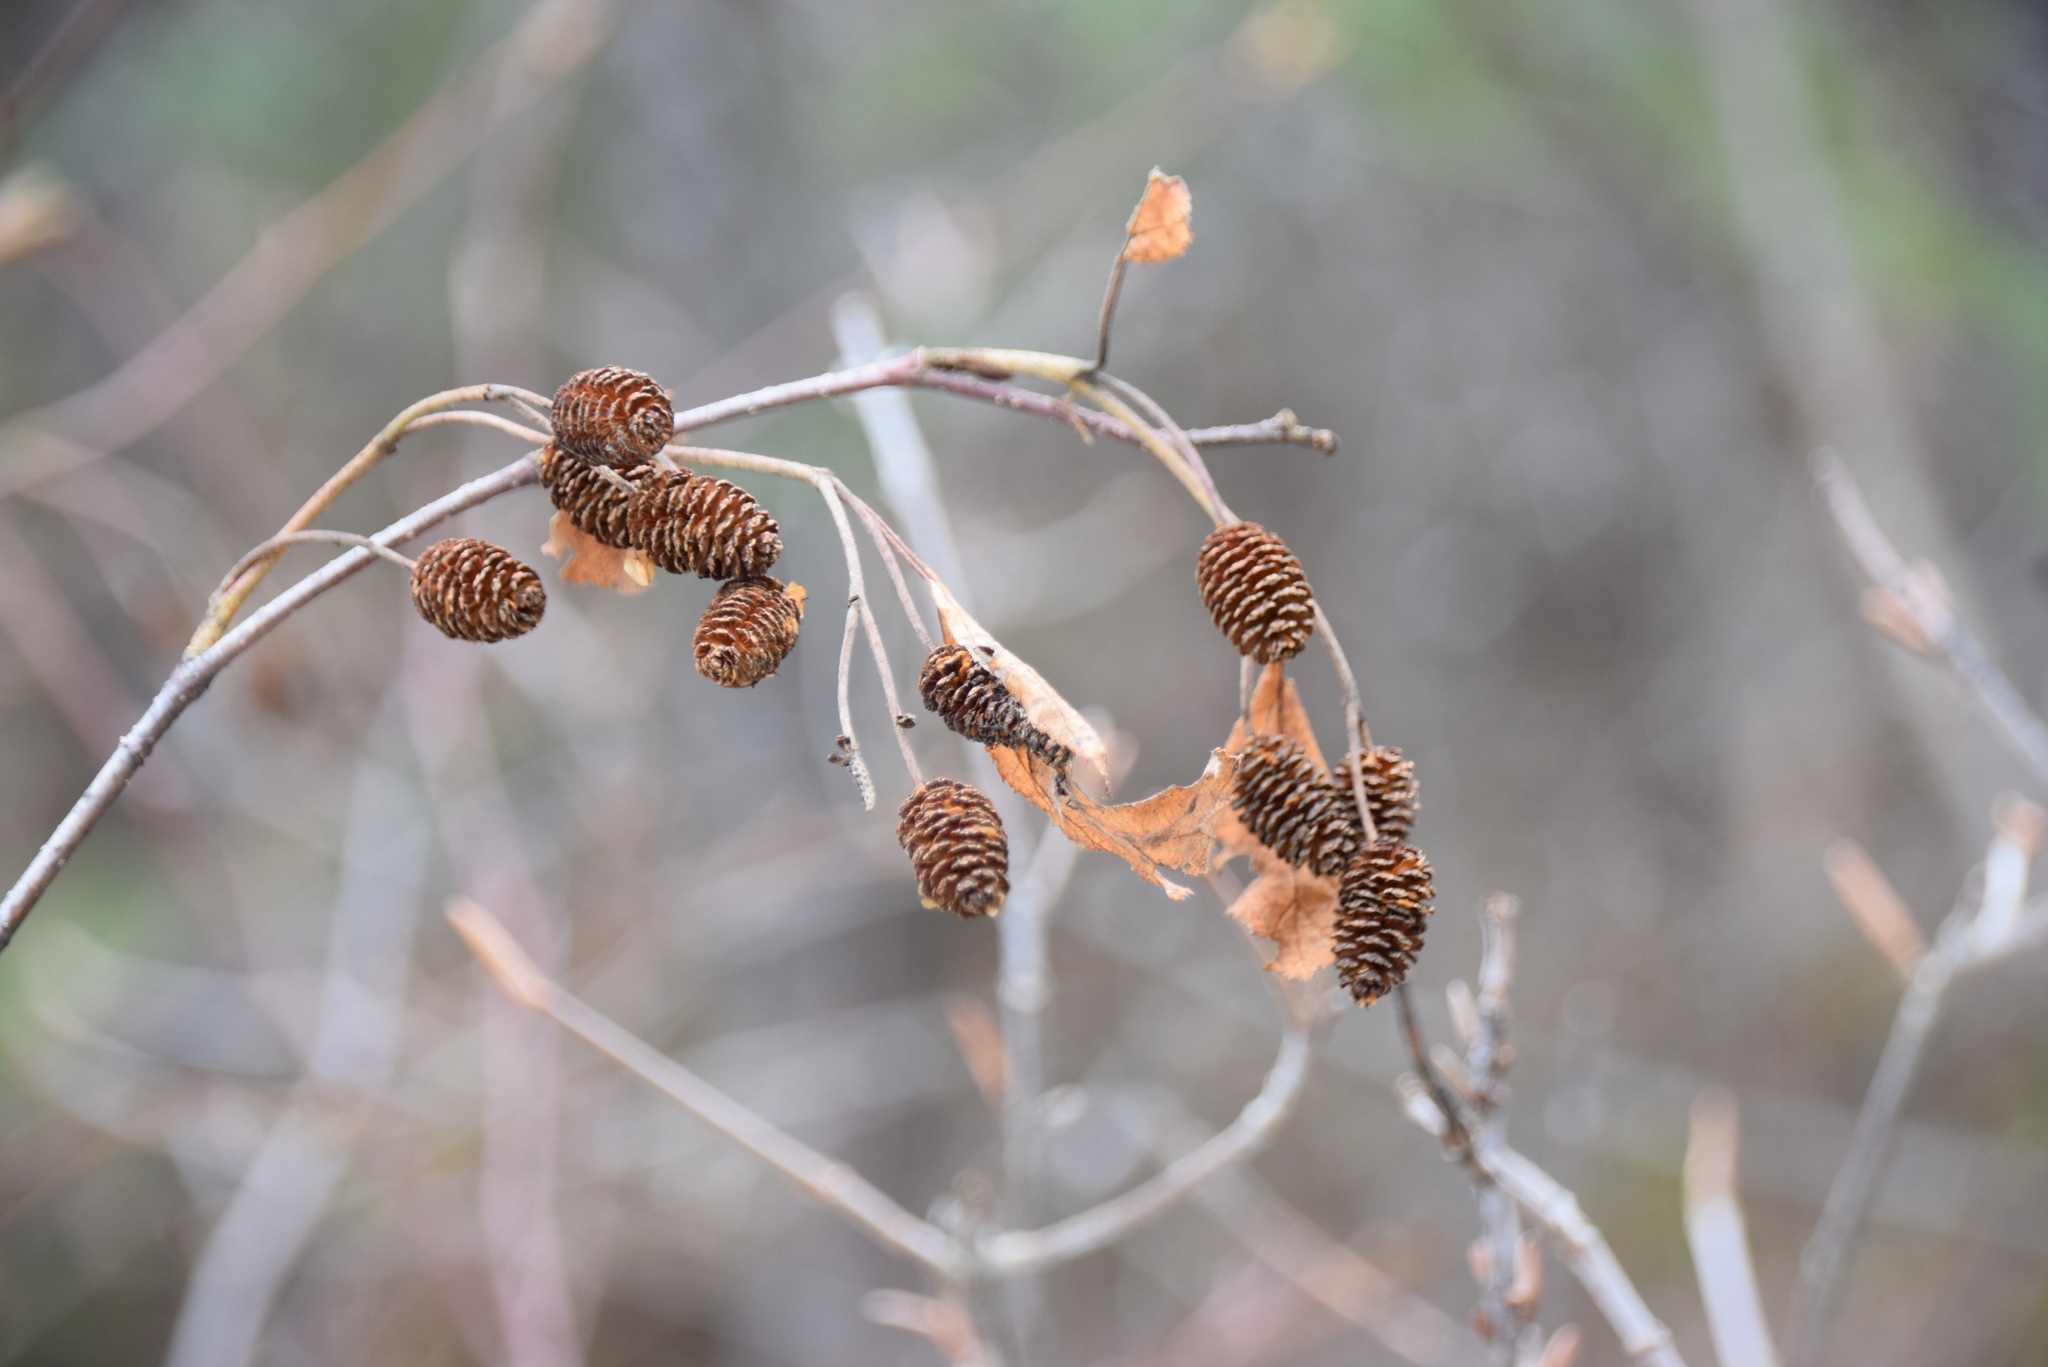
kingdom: Plantae
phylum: Tracheophyta
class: Magnoliopsida
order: Fagales
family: Betulaceae
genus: Alnus
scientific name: Alnus alnobetula
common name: Green alder
